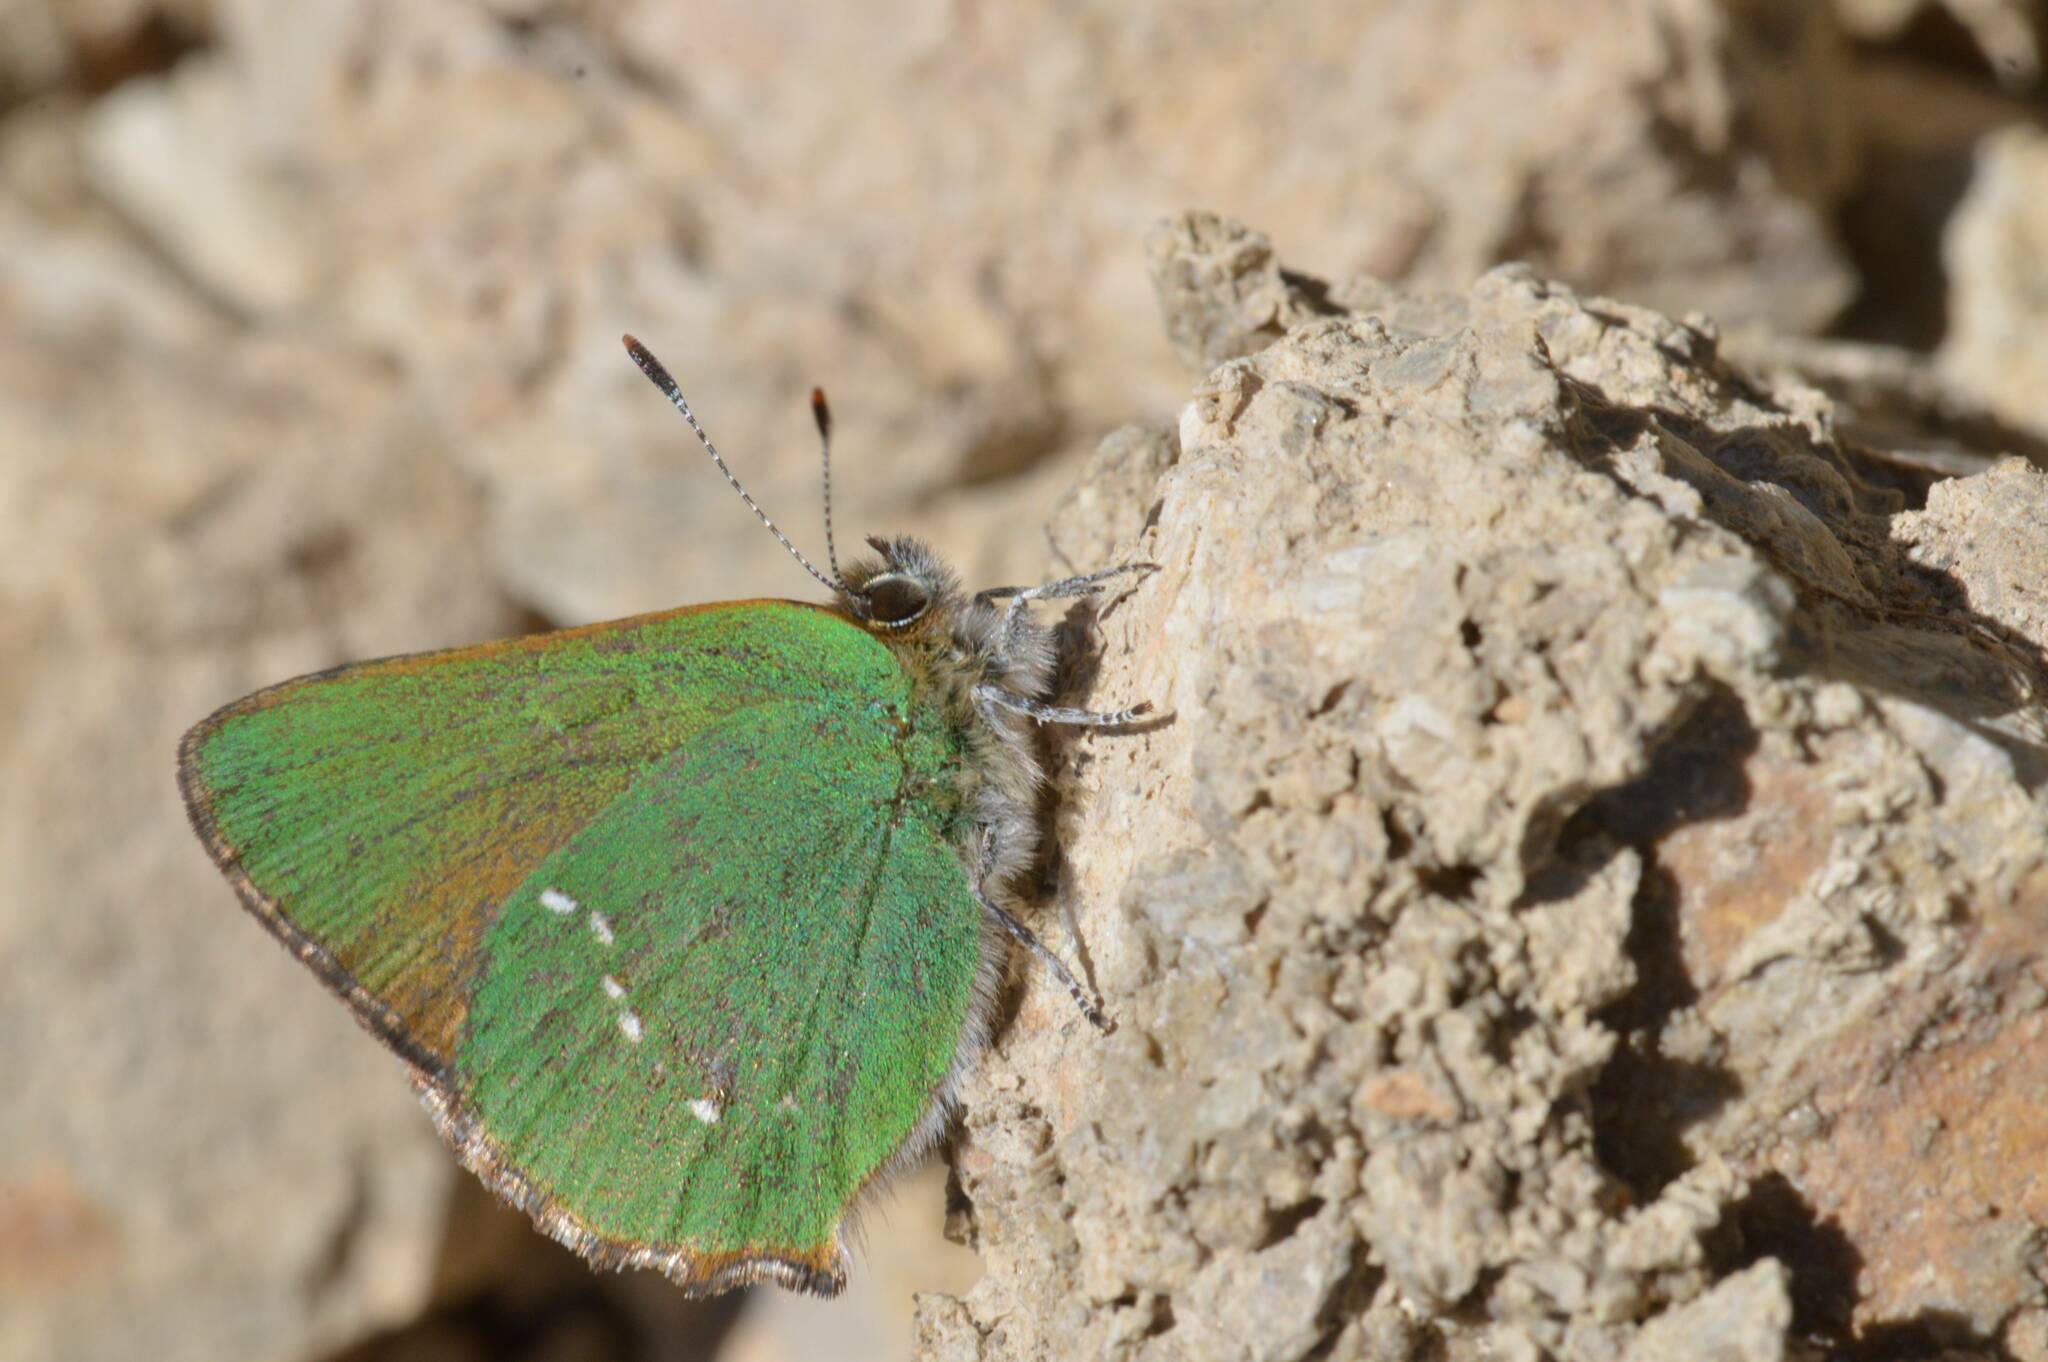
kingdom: Animalia
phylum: Arthropoda
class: Insecta
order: Lepidoptera
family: Lycaenidae
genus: Callophrys
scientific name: Callophrys rubi
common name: Green hairstreak
